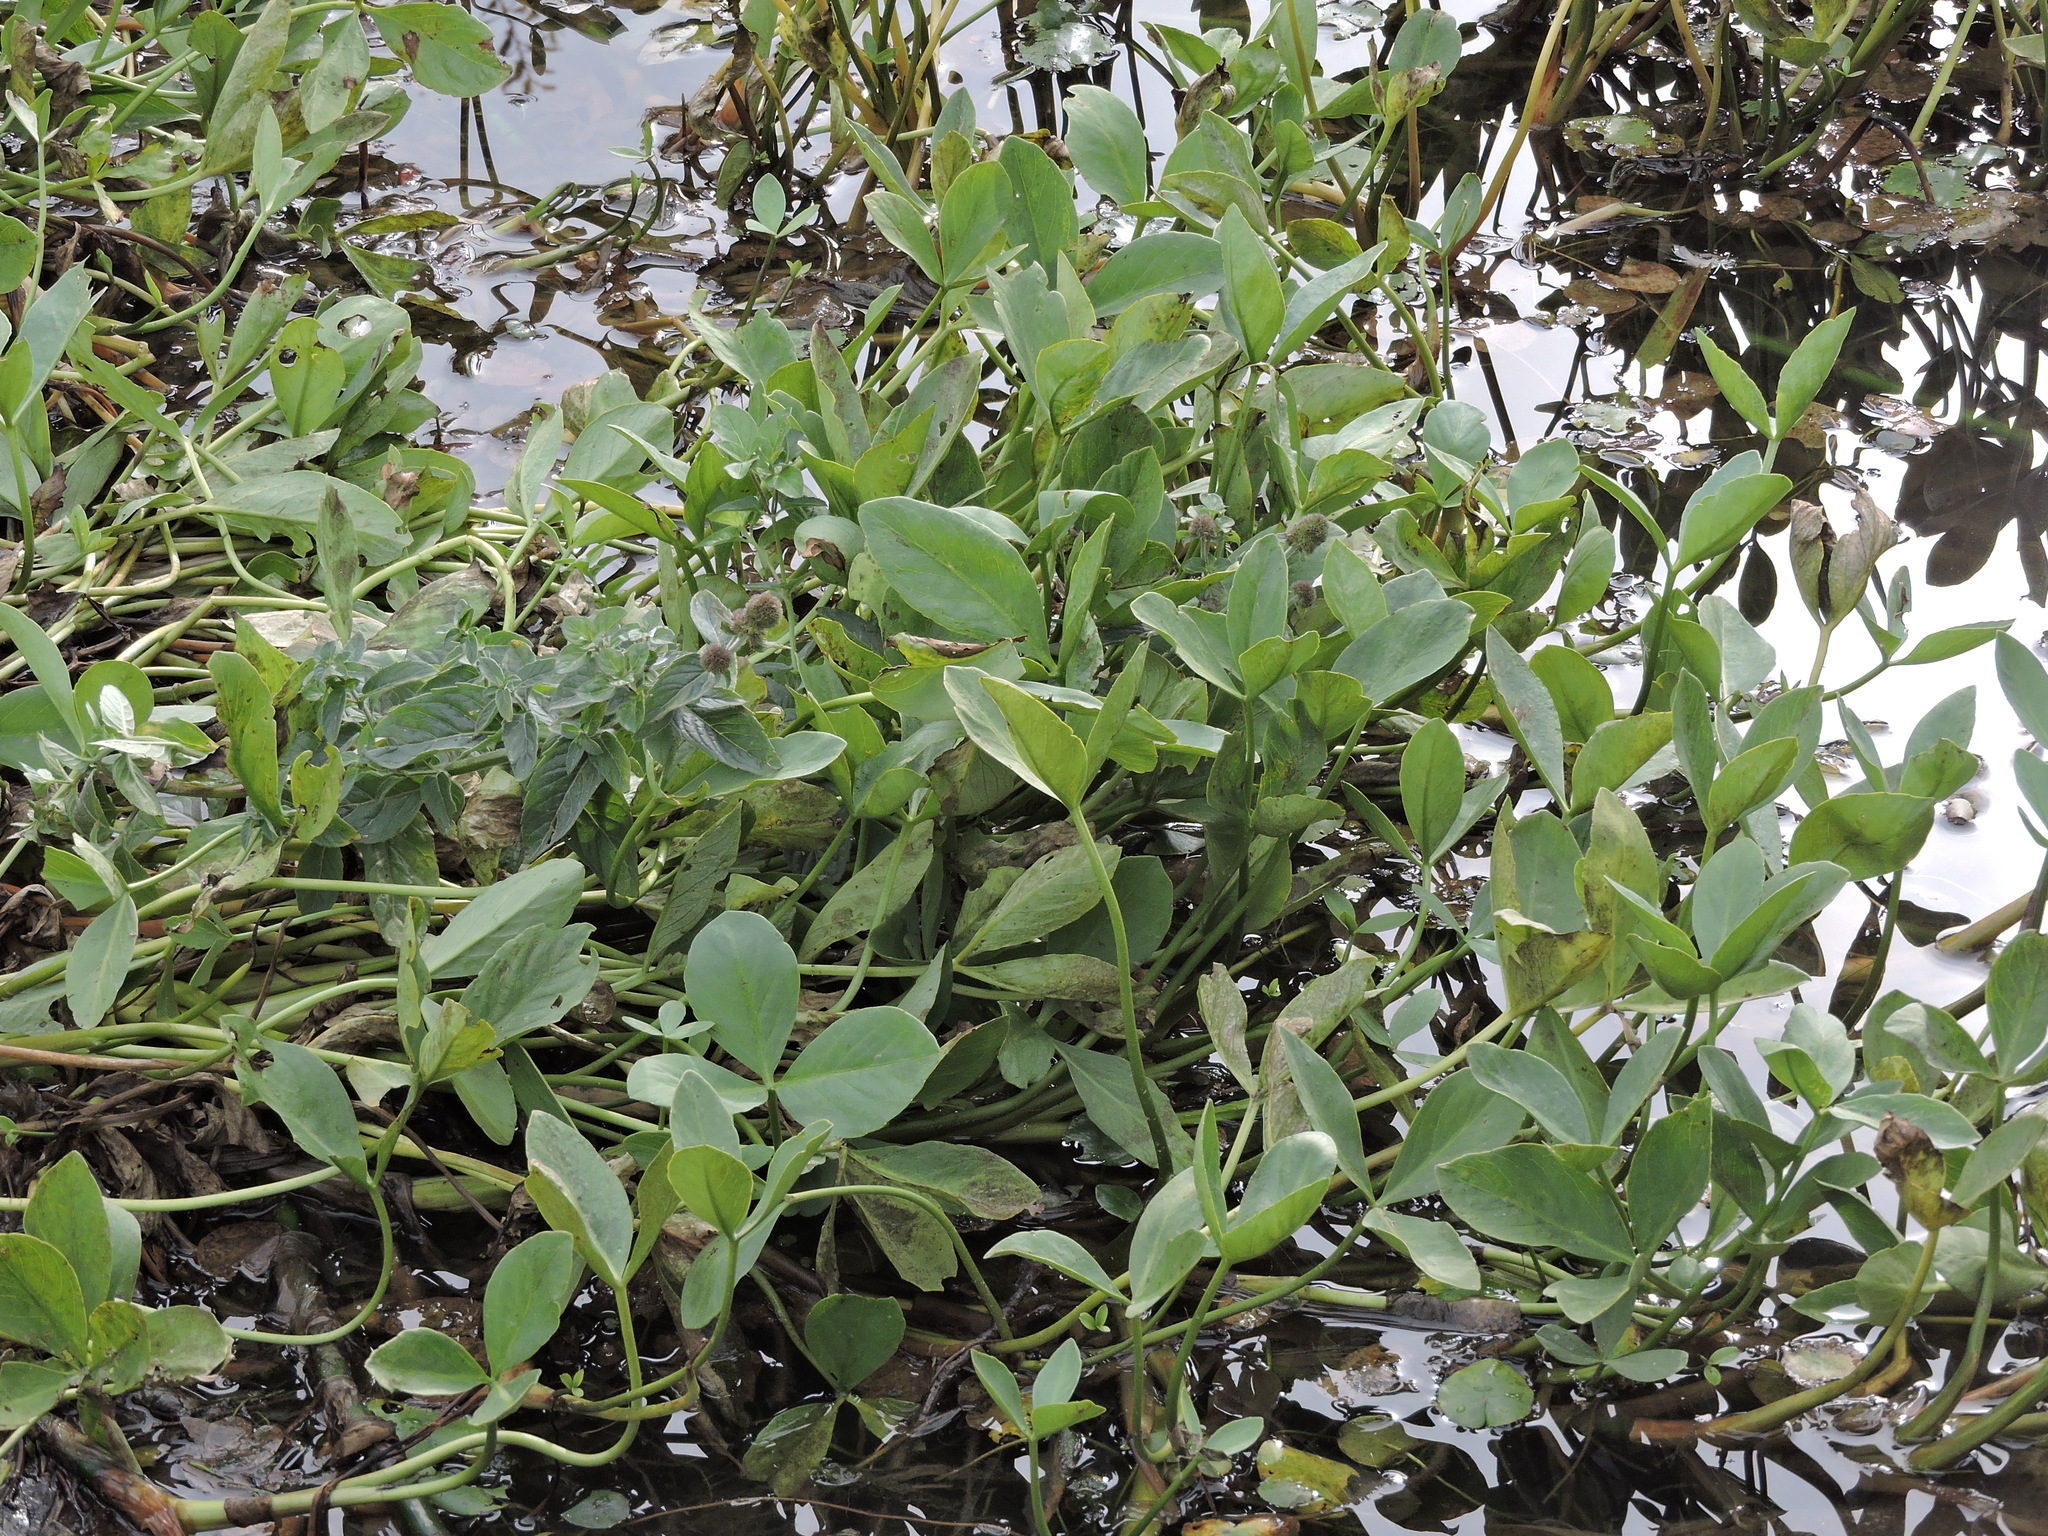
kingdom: Plantae
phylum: Tracheophyta
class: Magnoliopsida
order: Asterales
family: Menyanthaceae
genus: Menyanthes
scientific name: Menyanthes trifoliata
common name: Bogbean
